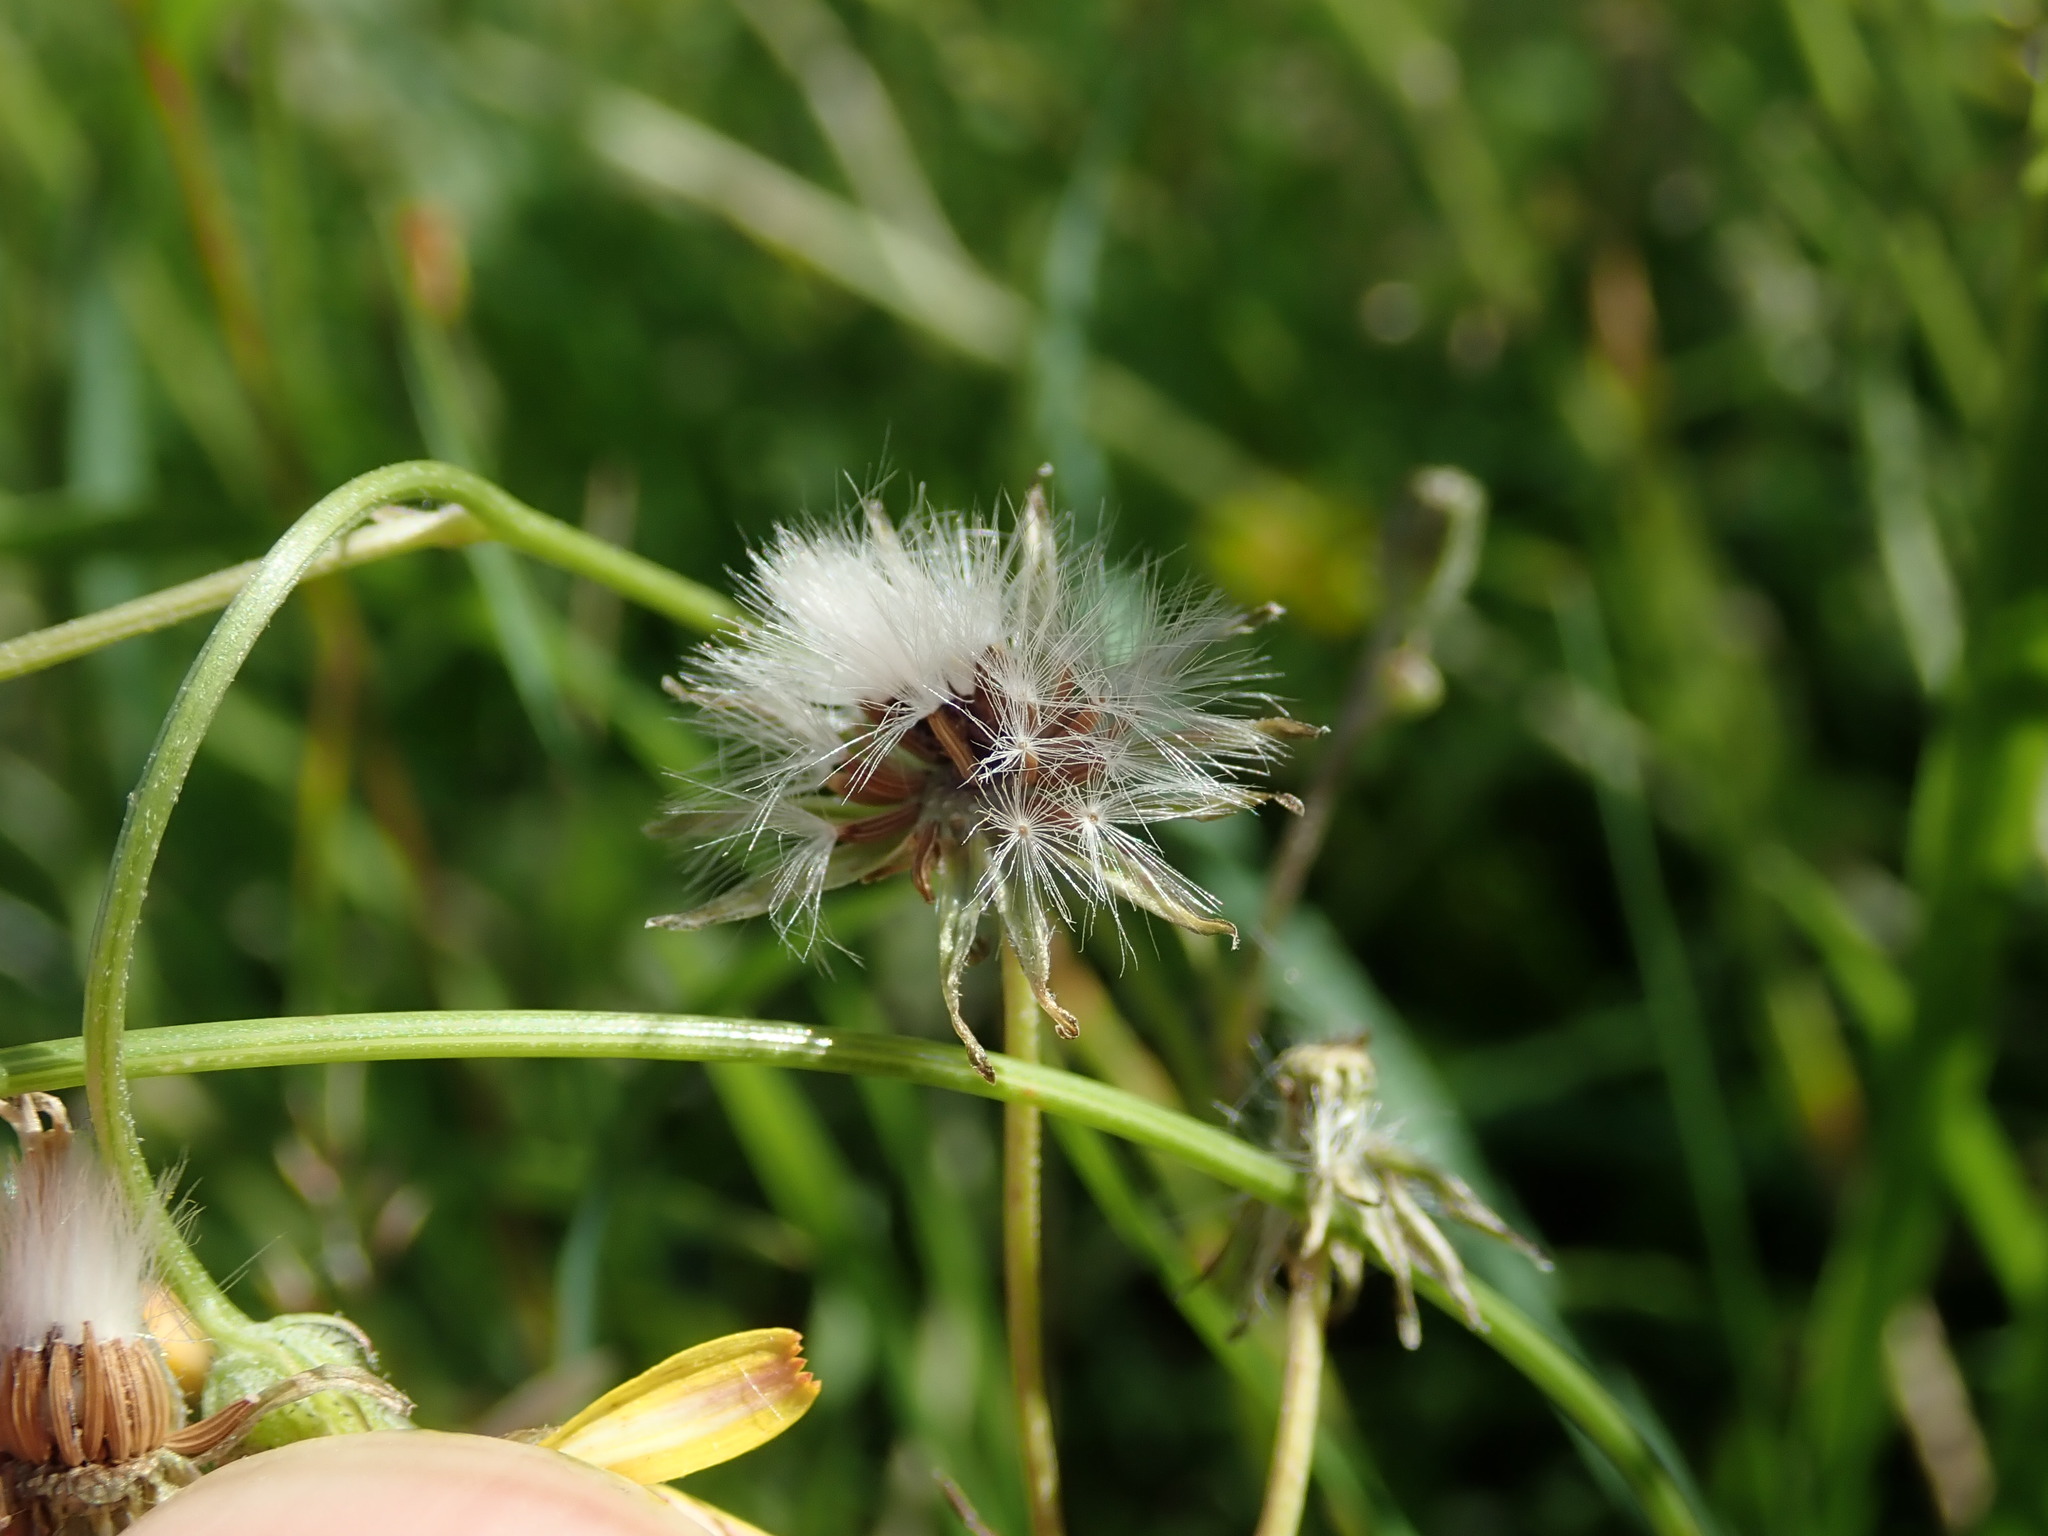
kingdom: Plantae
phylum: Tracheophyta
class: Magnoliopsida
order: Asterales
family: Asteraceae
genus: Crepis
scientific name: Crepis capillaris
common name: Smooth hawksbeard
